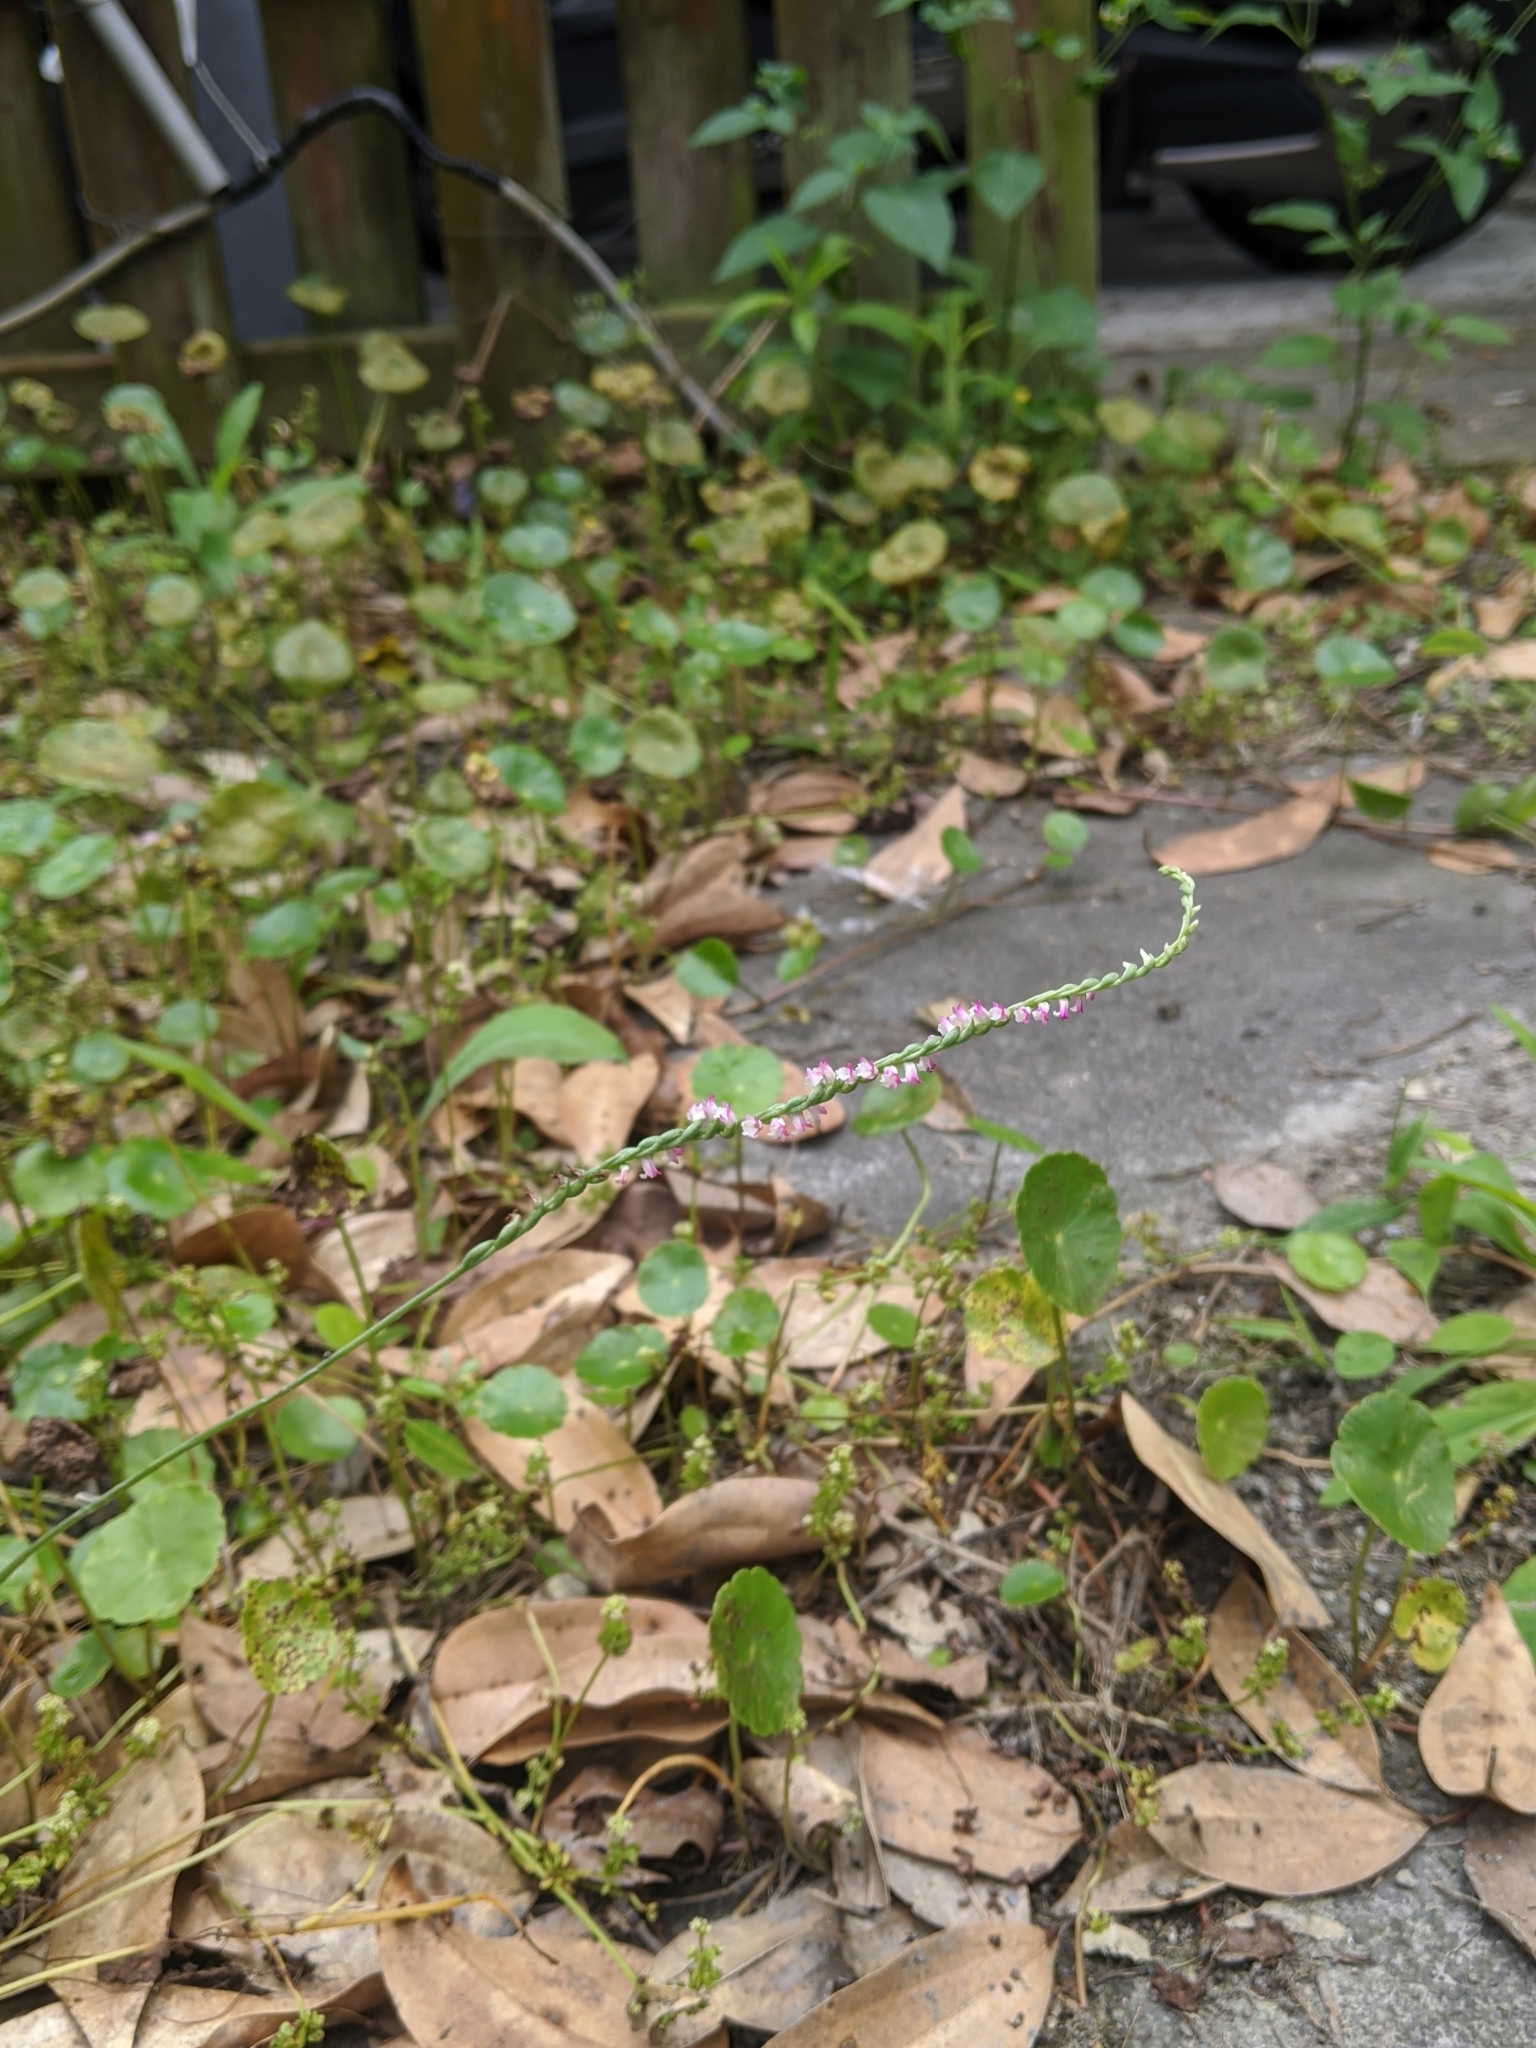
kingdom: Plantae
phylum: Tracheophyta
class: Liliopsida
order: Asparagales
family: Orchidaceae
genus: Spiranthes
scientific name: Spiranthes sinensis
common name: Chinese spiranthes
